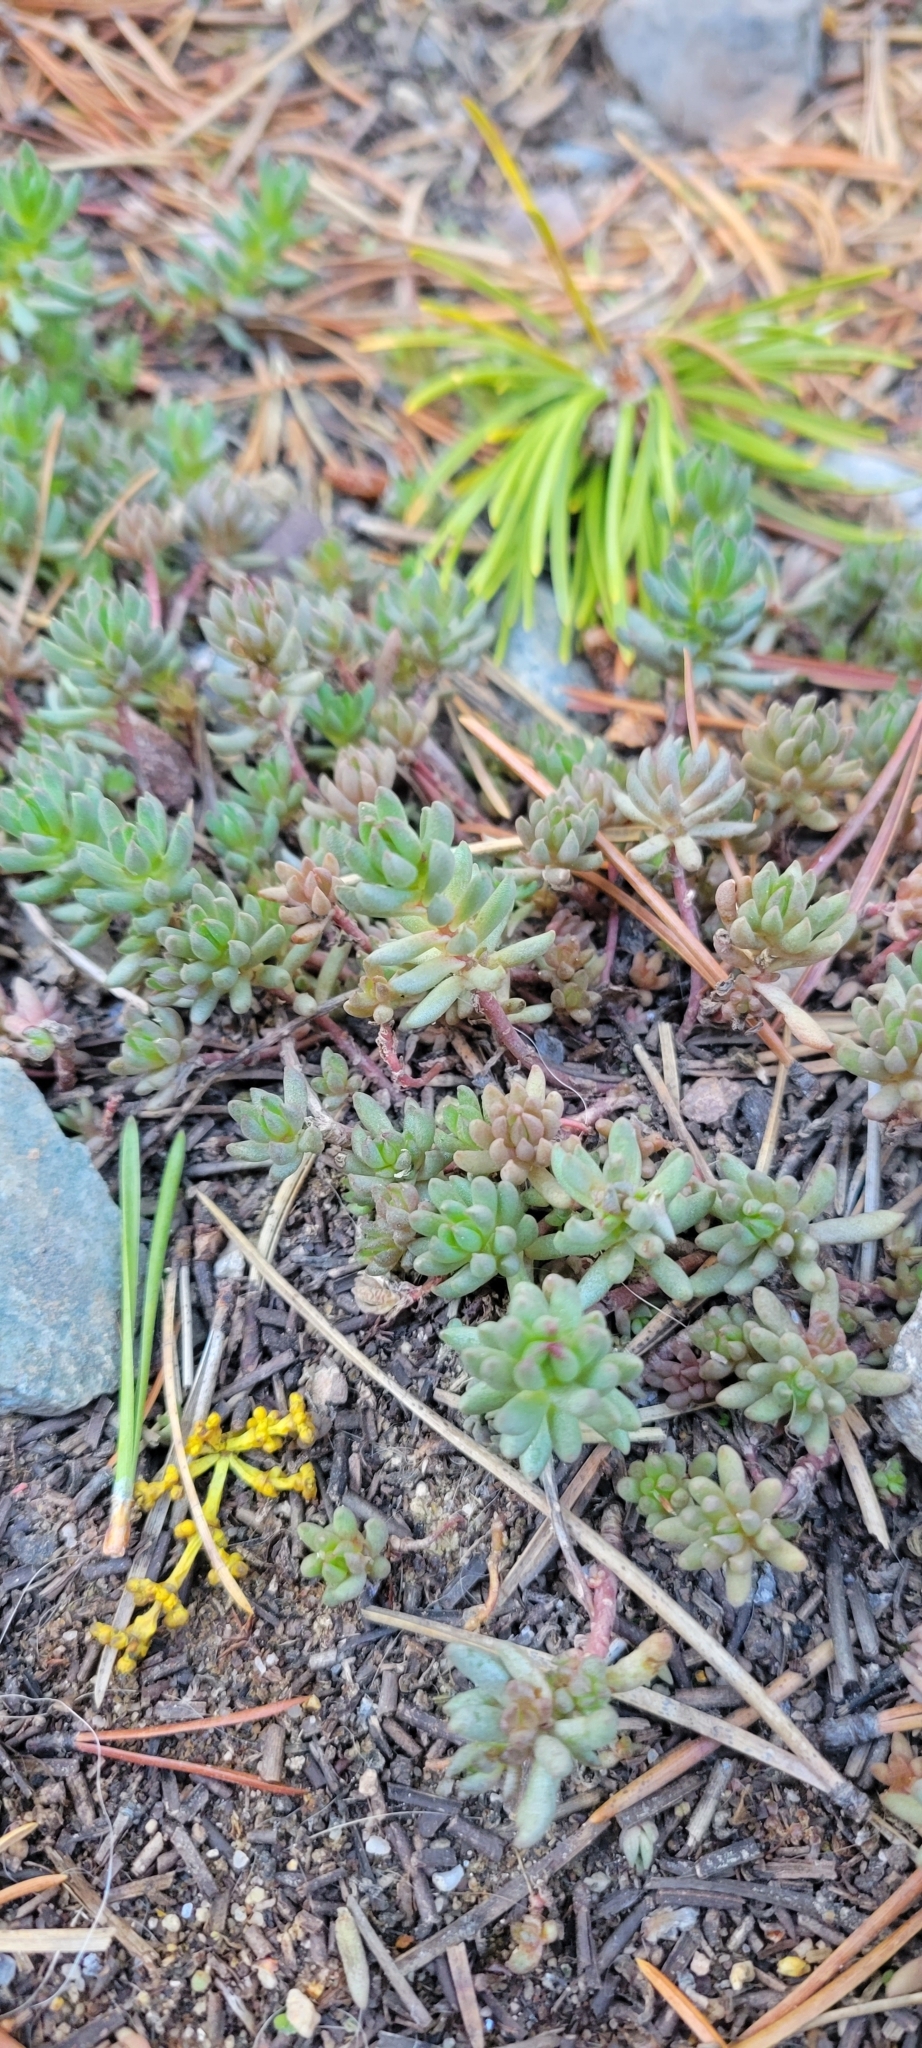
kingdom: Plantae
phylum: Tracheophyta
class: Magnoliopsida
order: Saxifragales
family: Crassulaceae
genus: Sedum
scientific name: Sedum lanceolatum
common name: Common stonecrop
